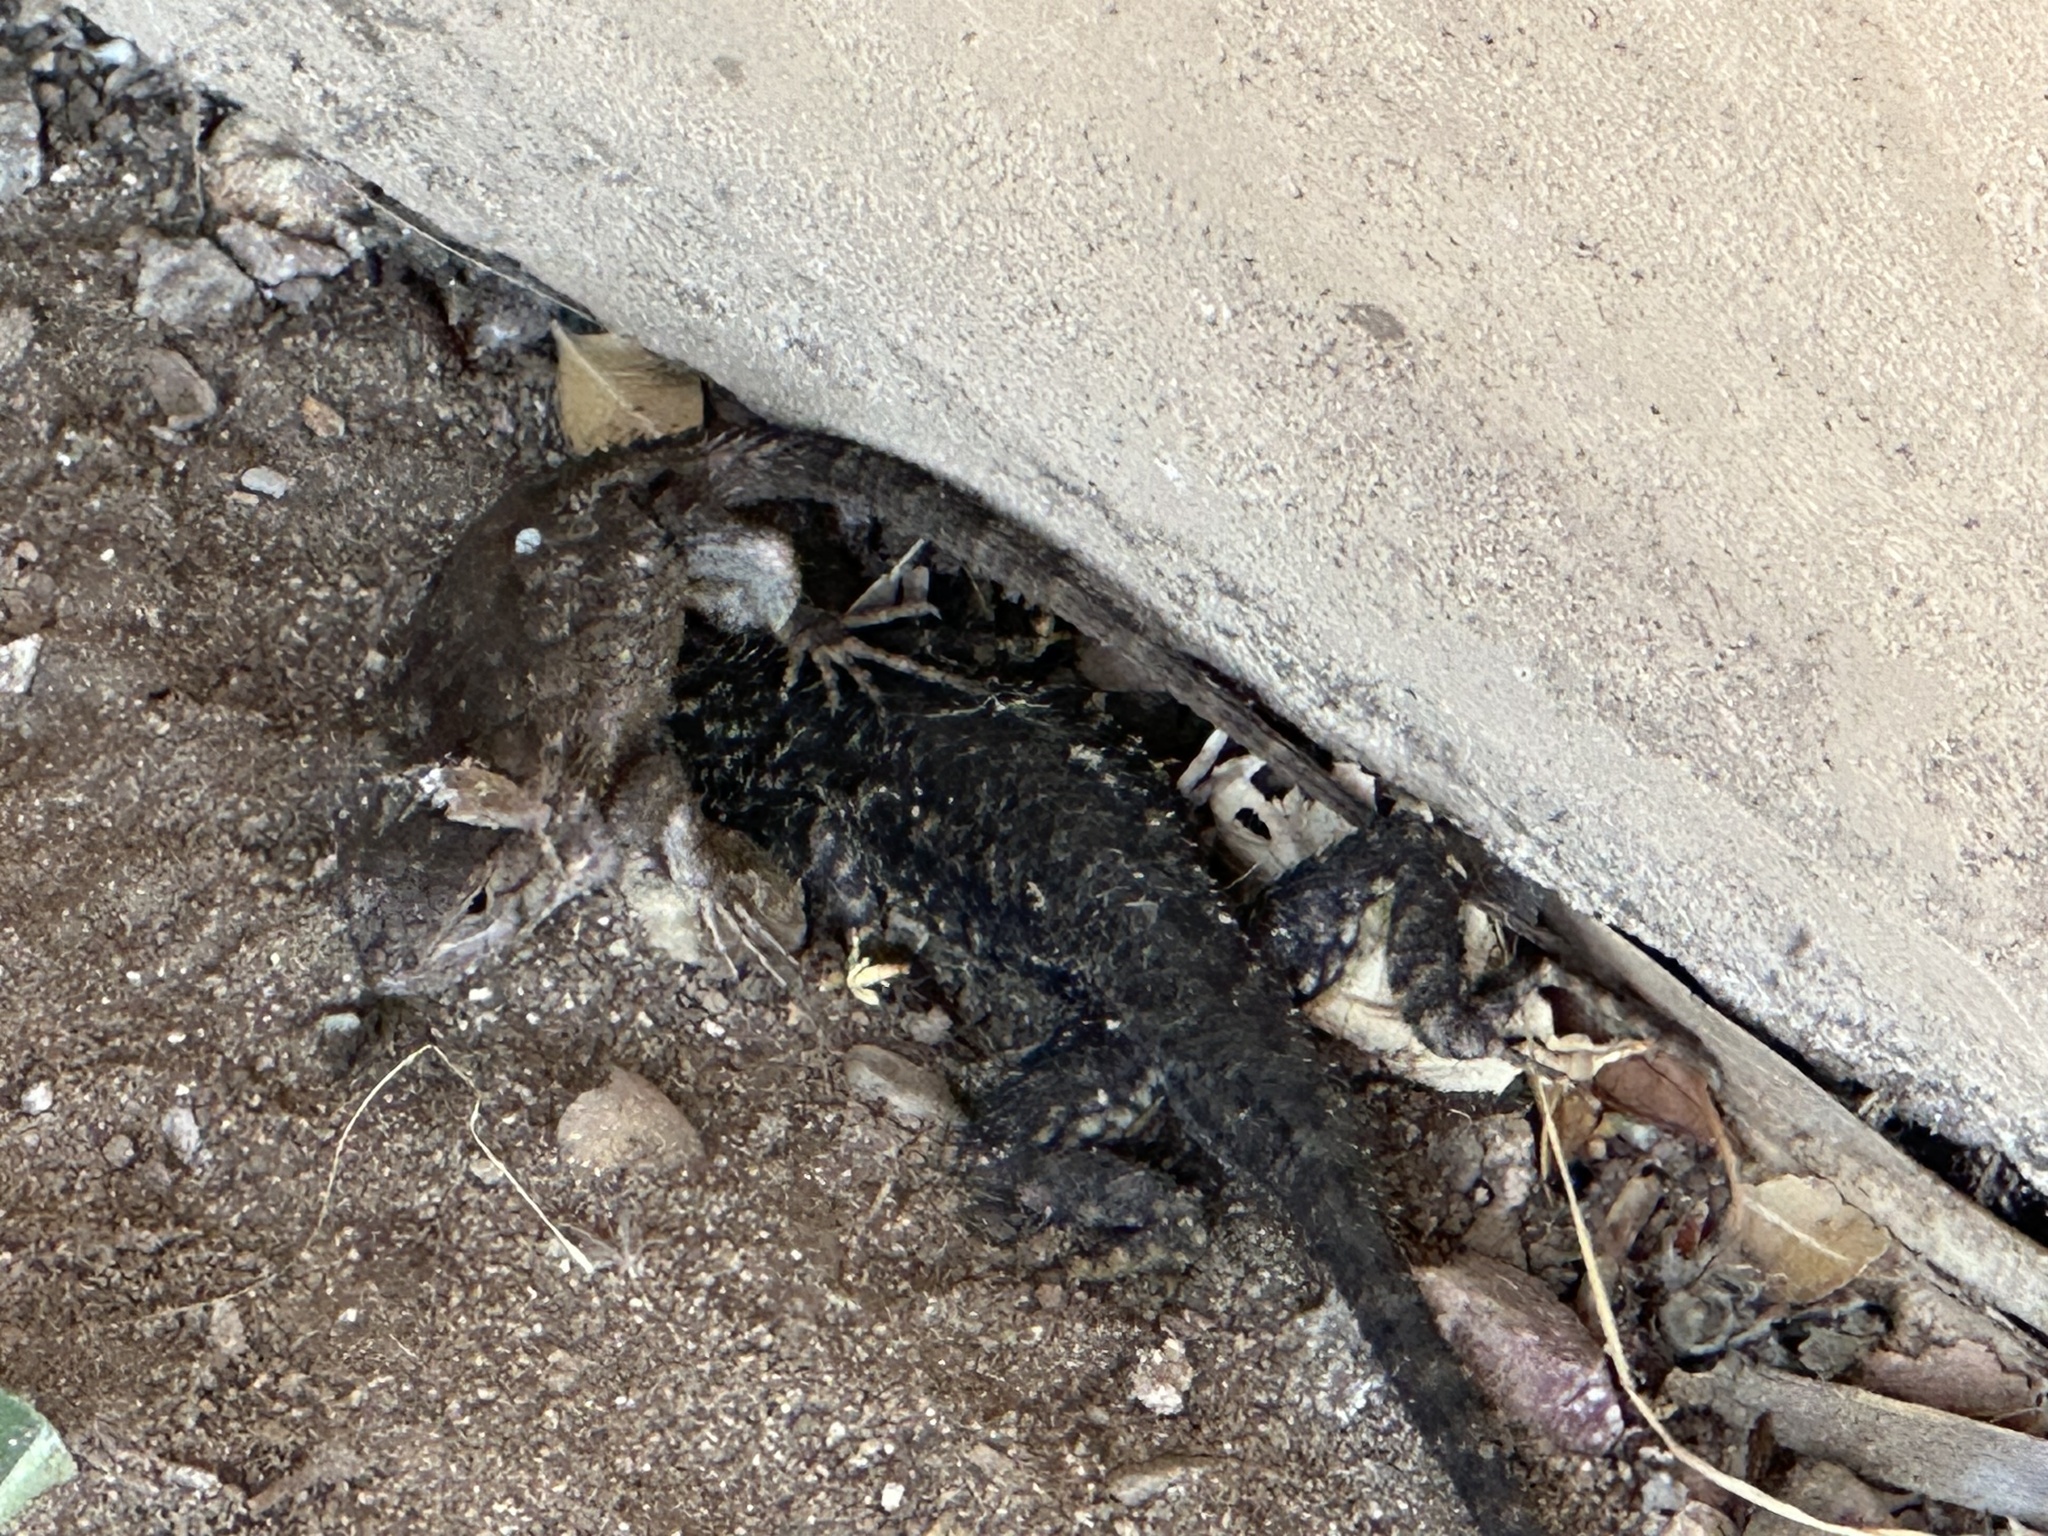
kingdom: Animalia
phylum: Chordata
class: Squamata
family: Phrynosomatidae
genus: Sceloporus
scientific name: Sceloporus occidentalis
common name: Western fence lizard
